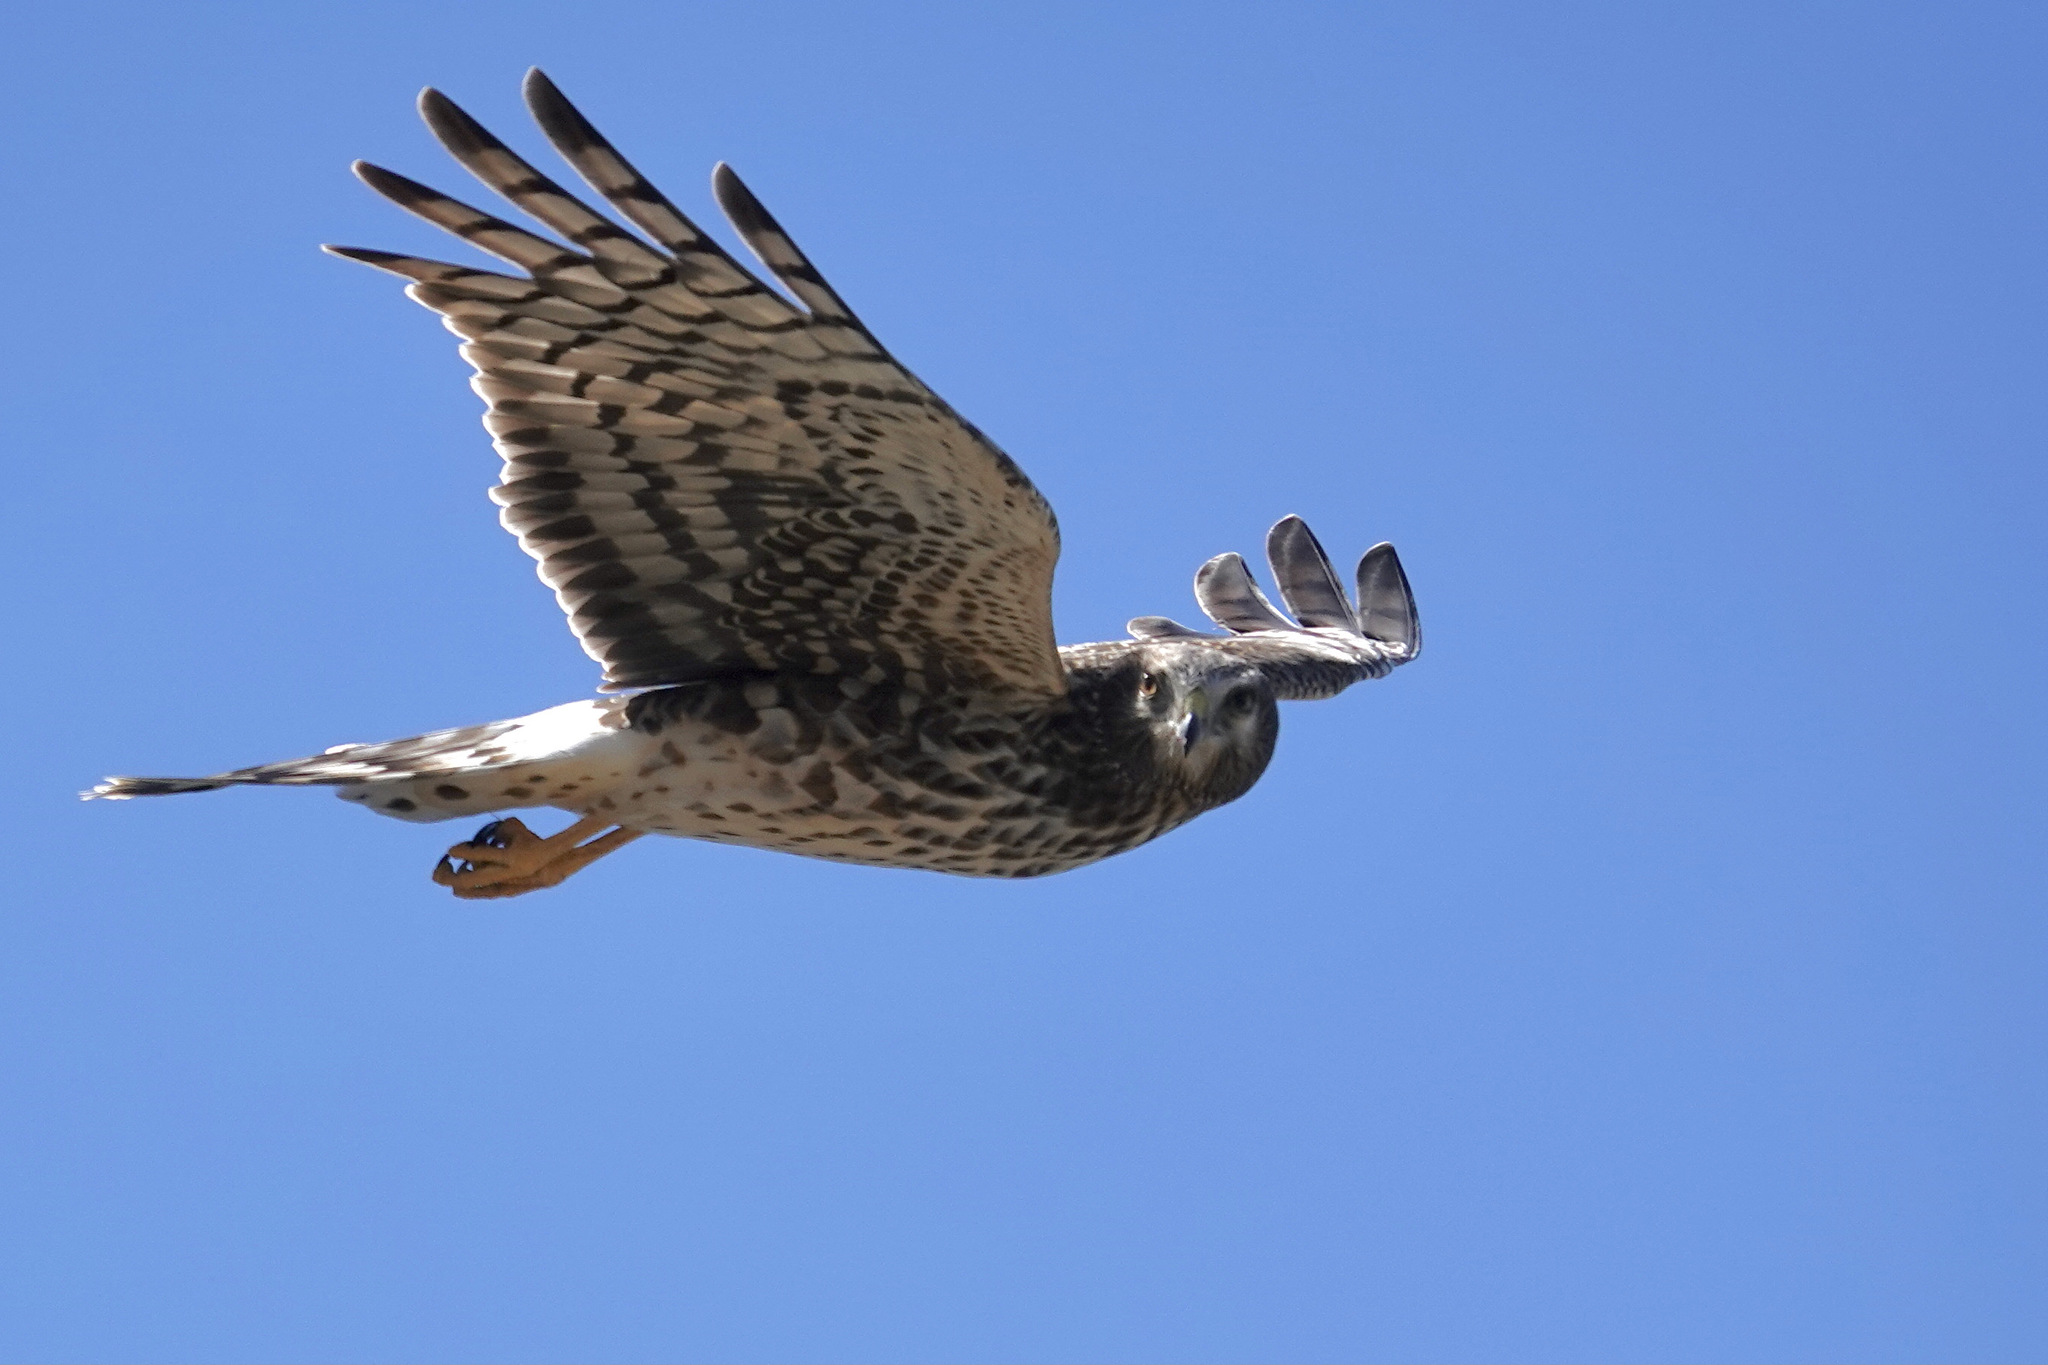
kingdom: Animalia
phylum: Chordata
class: Aves
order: Accipitriformes
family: Accipitridae
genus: Circus
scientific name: Circus cyaneus
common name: Hen harrier
